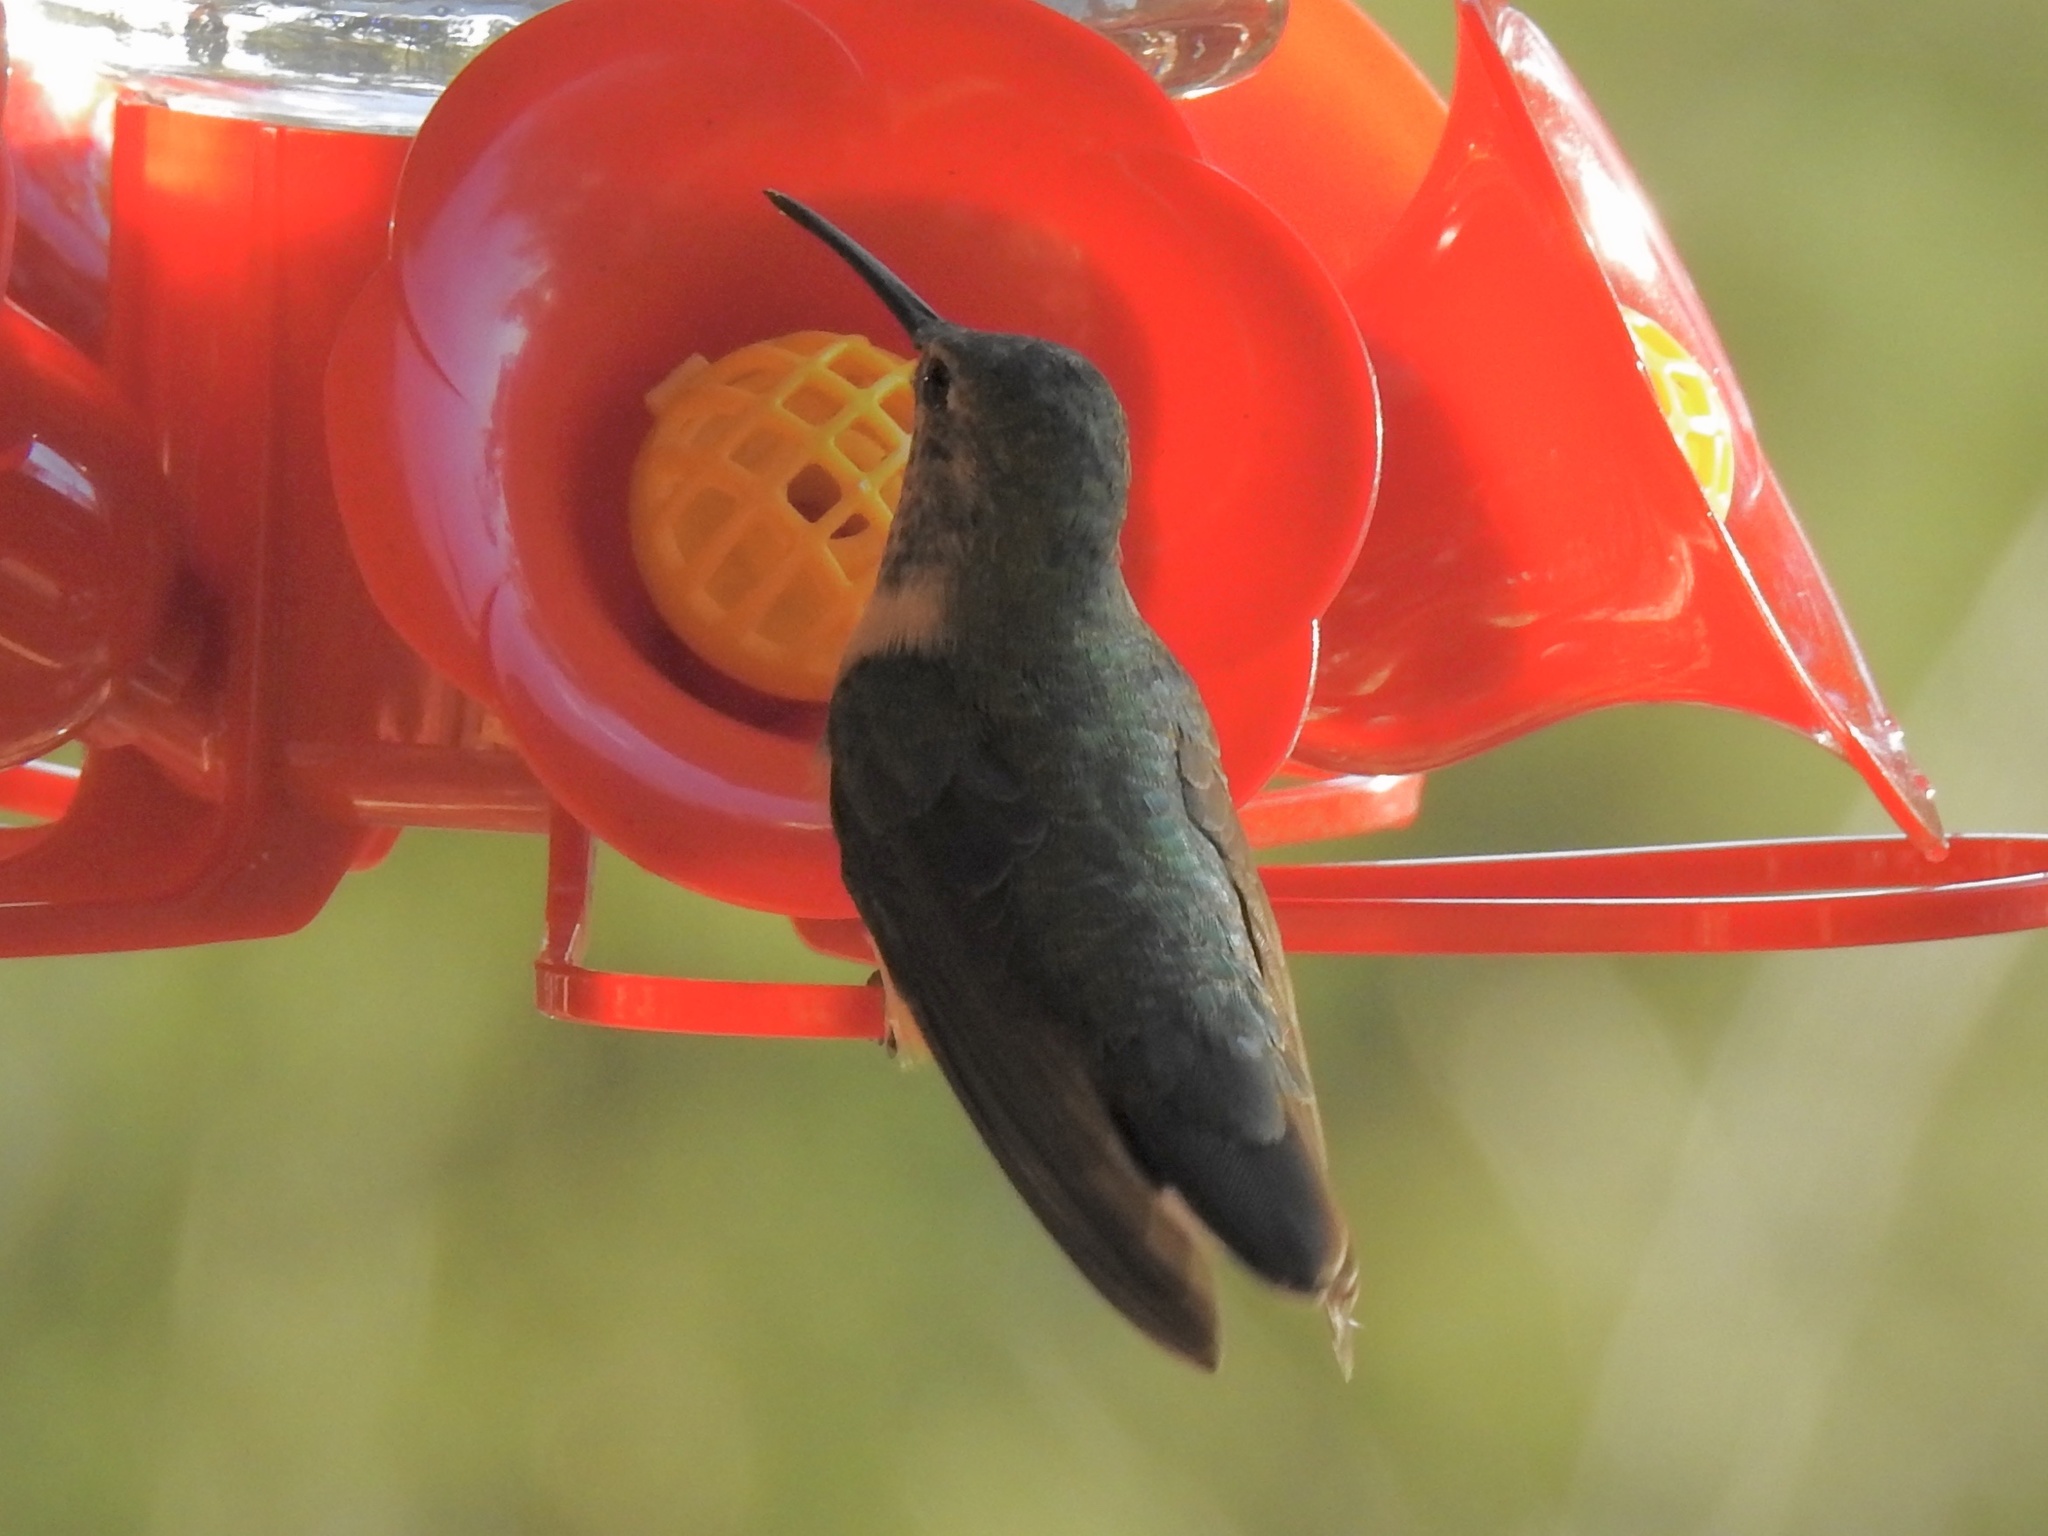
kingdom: Animalia
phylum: Chordata
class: Aves
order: Apodiformes
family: Trochilidae
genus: Selasphorus
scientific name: Selasphorus platycercus
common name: Broad-tailed hummingbird
